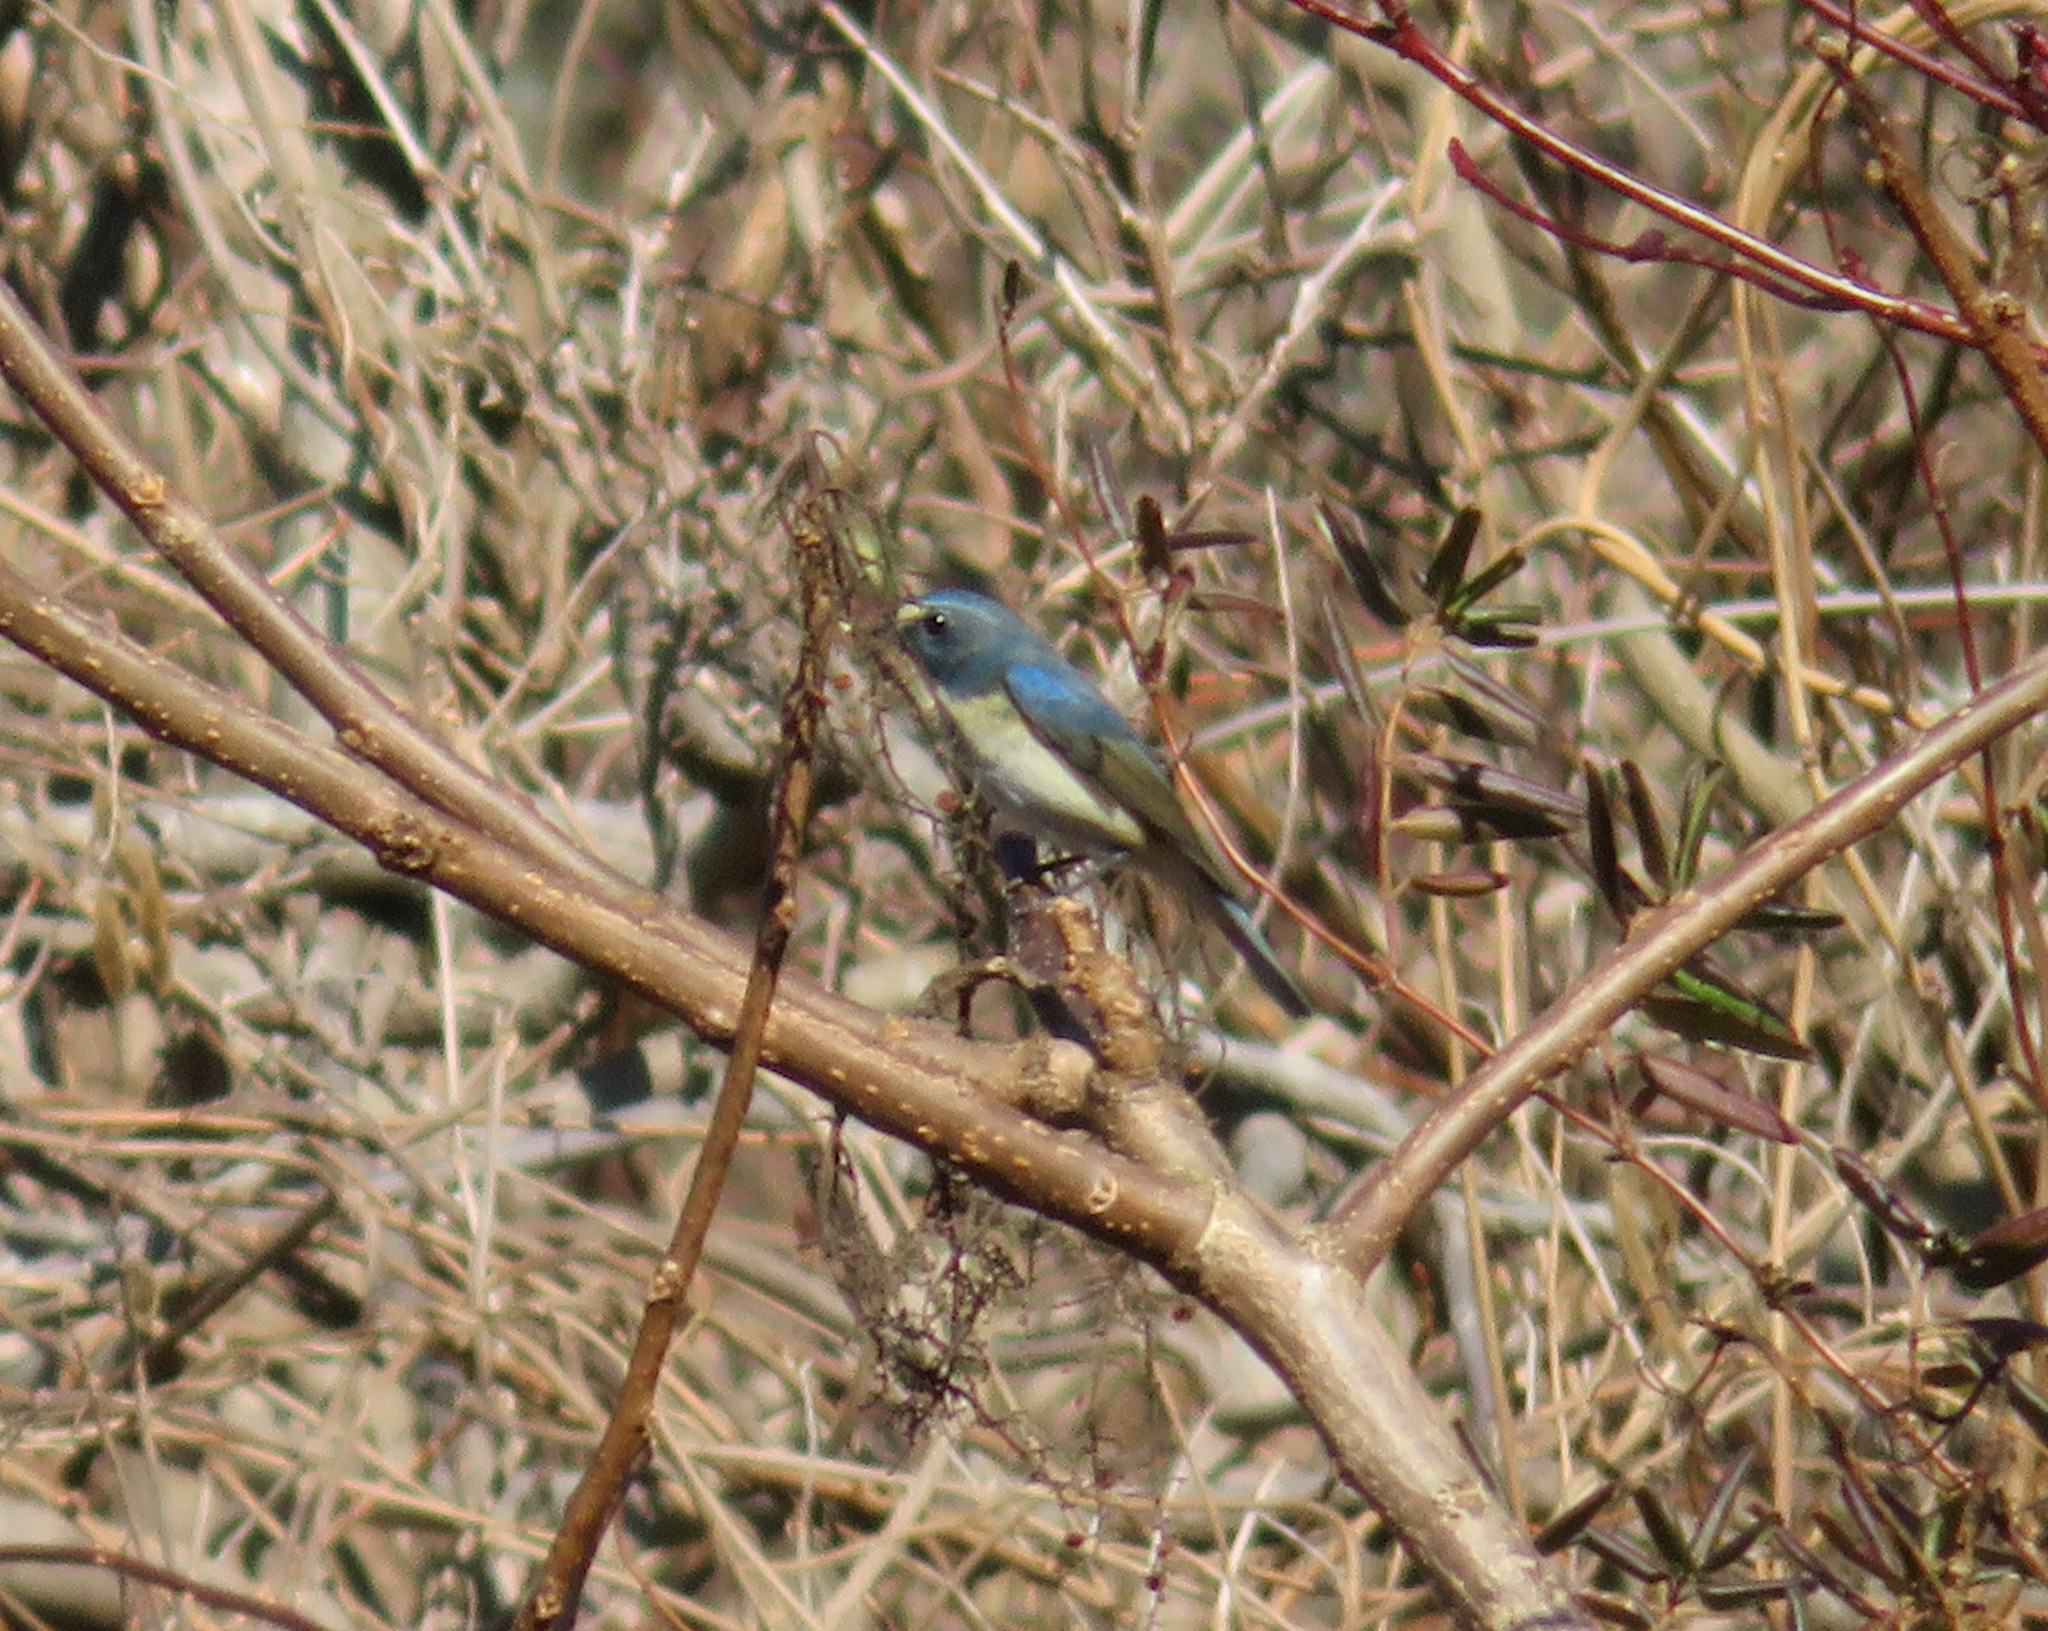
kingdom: Animalia
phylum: Chordata
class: Aves
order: Passeriformes
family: Muscicapidae
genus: Tarsiger
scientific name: Tarsiger cyanurus
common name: Red-flanked bluetail
